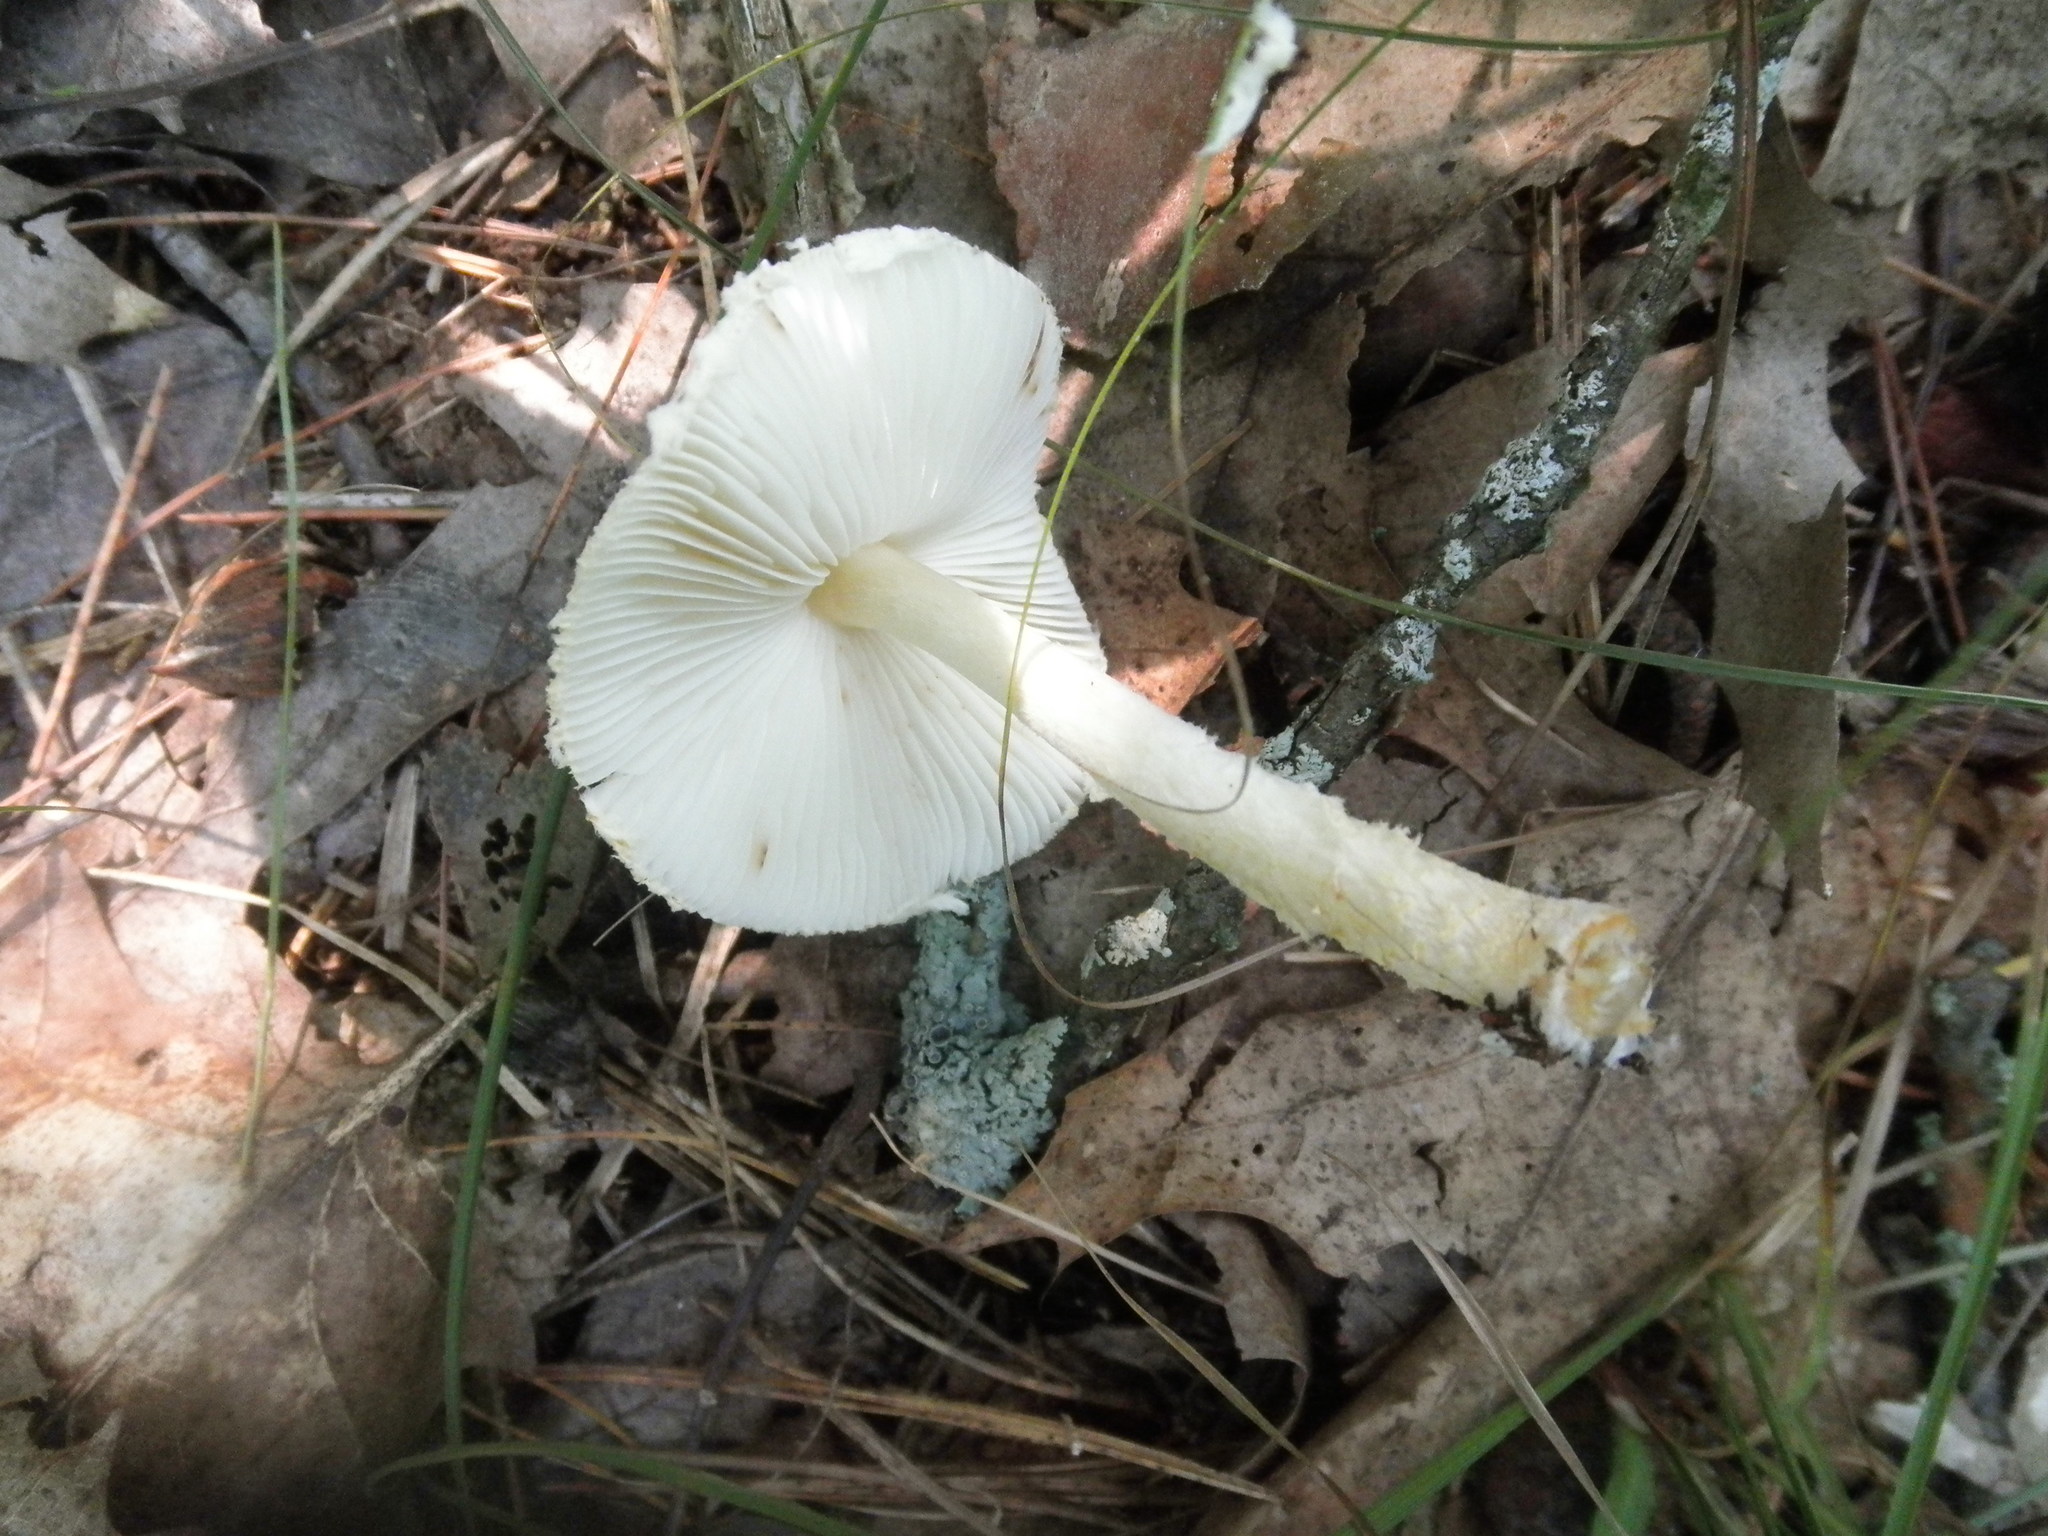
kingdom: Fungi
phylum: Basidiomycota
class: Agaricomycetes
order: Agaricales
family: Agaricaceae
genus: Lepiota
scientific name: Lepiota clypeolaria
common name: Shield dapperling
